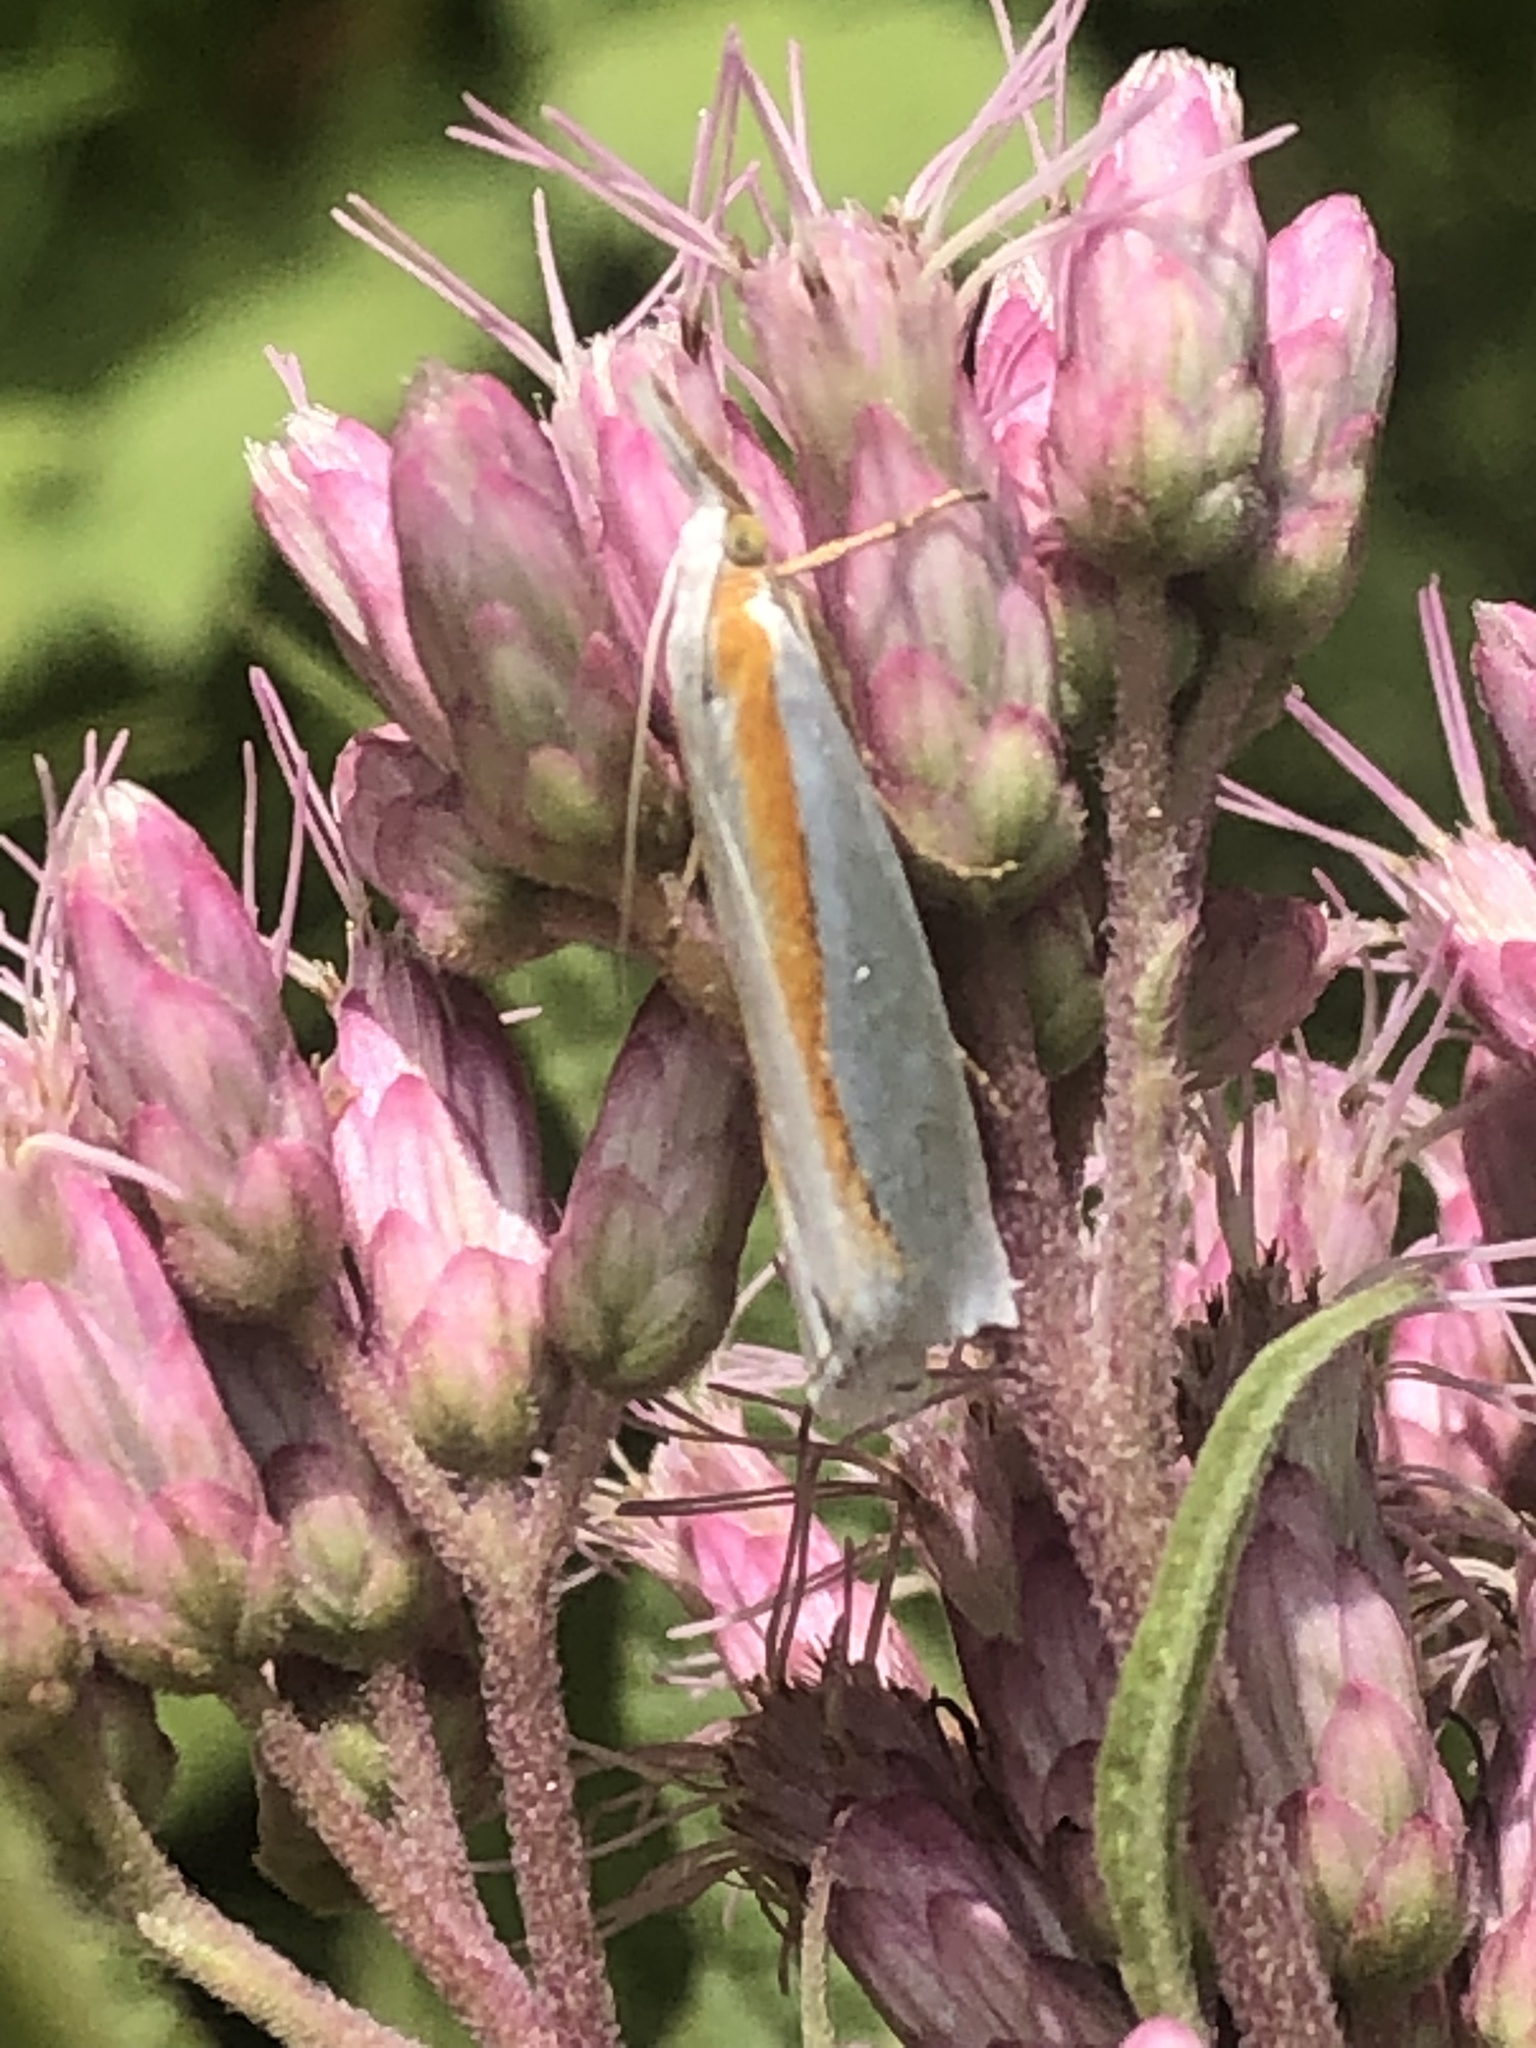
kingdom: Animalia
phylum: Arthropoda
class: Insecta
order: Lepidoptera
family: Crambidae
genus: Crambus
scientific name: Crambus girardellus
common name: Girard's grass-veneer
